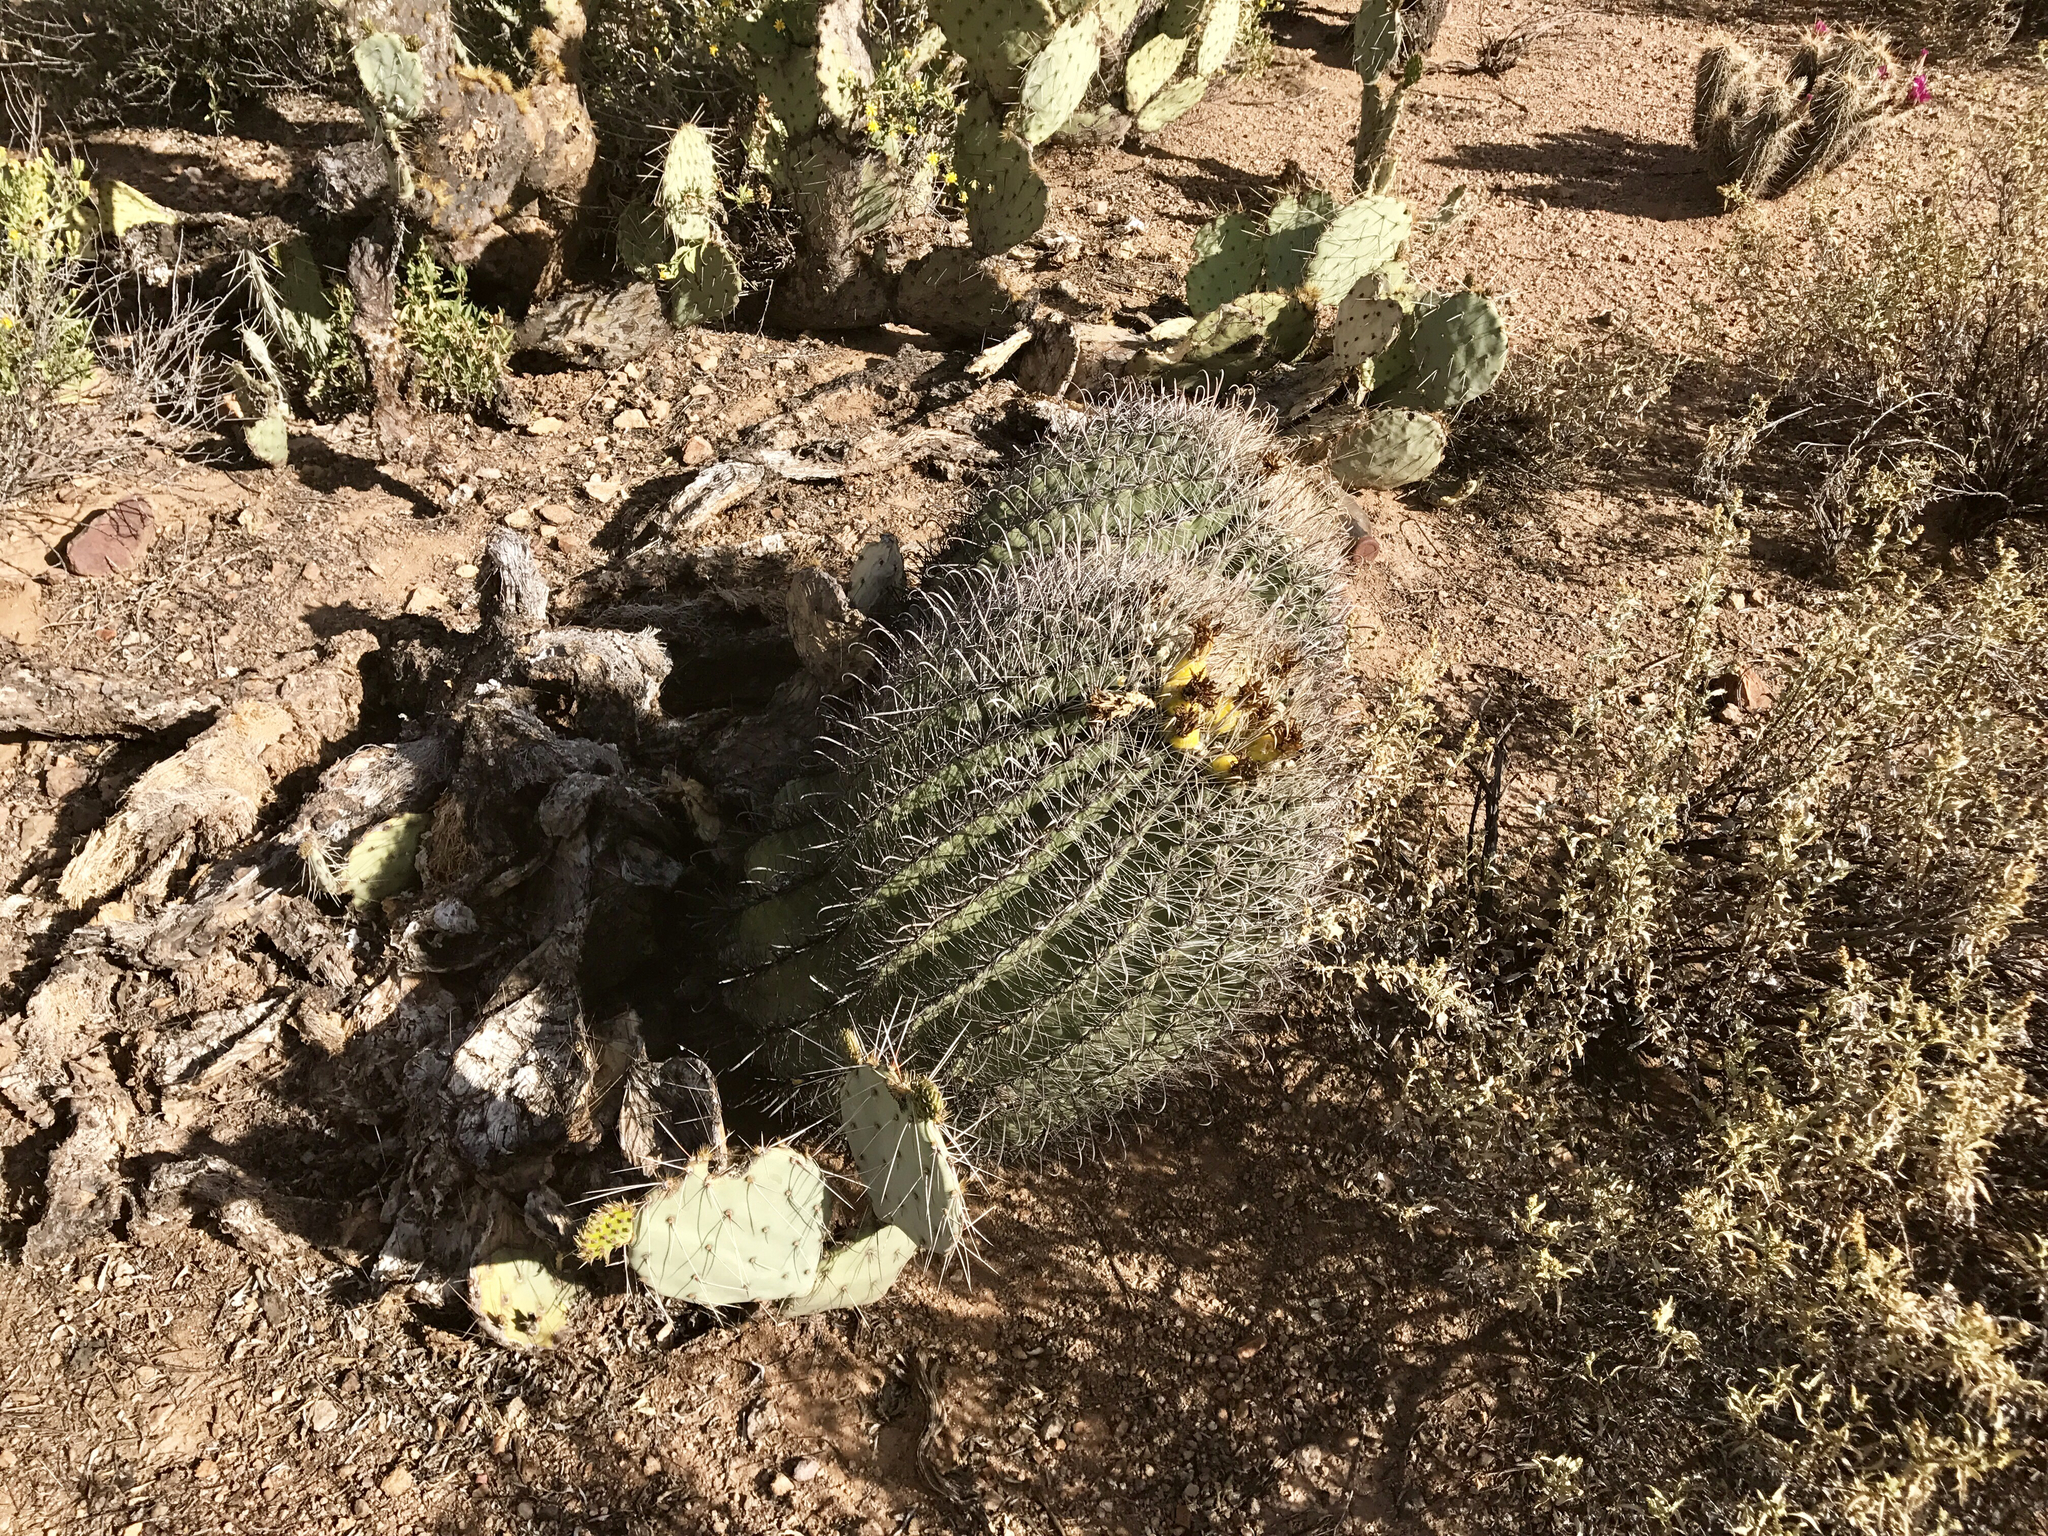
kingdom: Plantae
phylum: Tracheophyta
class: Magnoliopsida
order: Caryophyllales
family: Cactaceae
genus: Ferocactus
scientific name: Ferocactus wislizeni
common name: Candy barrel cactus
